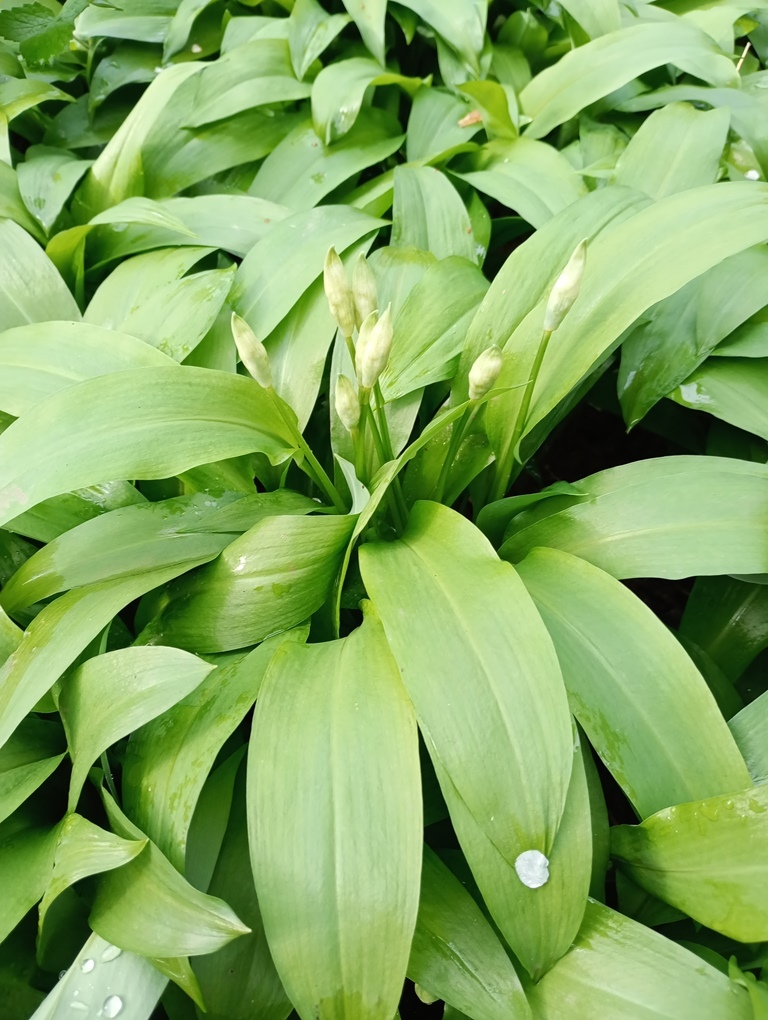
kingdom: Plantae
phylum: Tracheophyta
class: Liliopsida
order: Asparagales
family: Amaryllidaceae
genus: Allium
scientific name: Allium ursinum
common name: Ramsons
